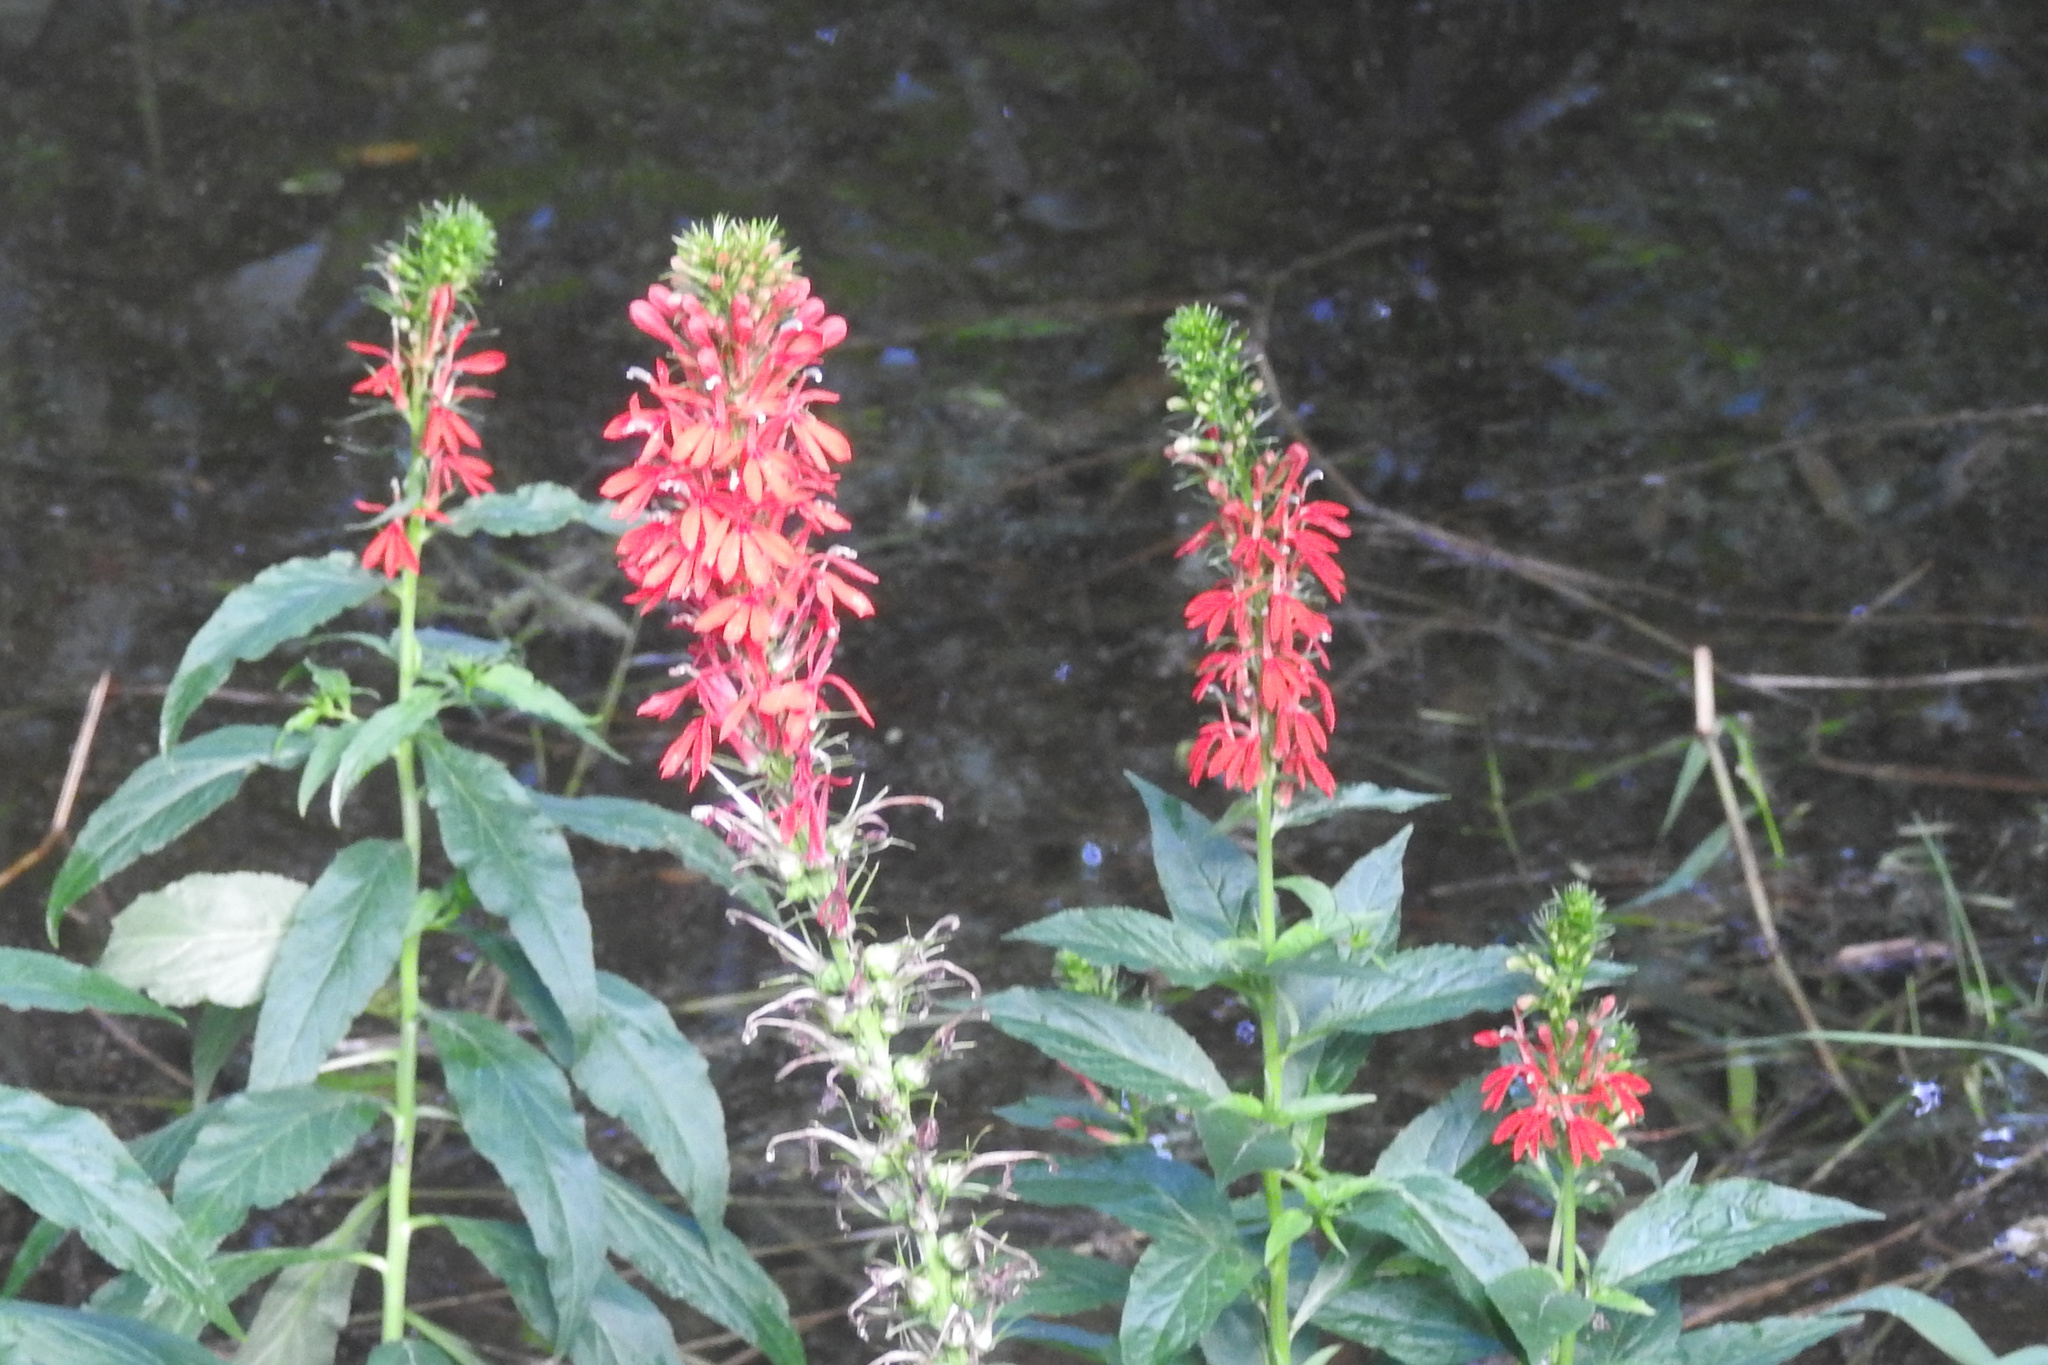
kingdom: Plantae
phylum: Tracheophyta
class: Magnoliopsida
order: Asterales
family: Campanulaceae
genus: Lobelia
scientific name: Lobelia cardinalis
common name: Cardinal flower
